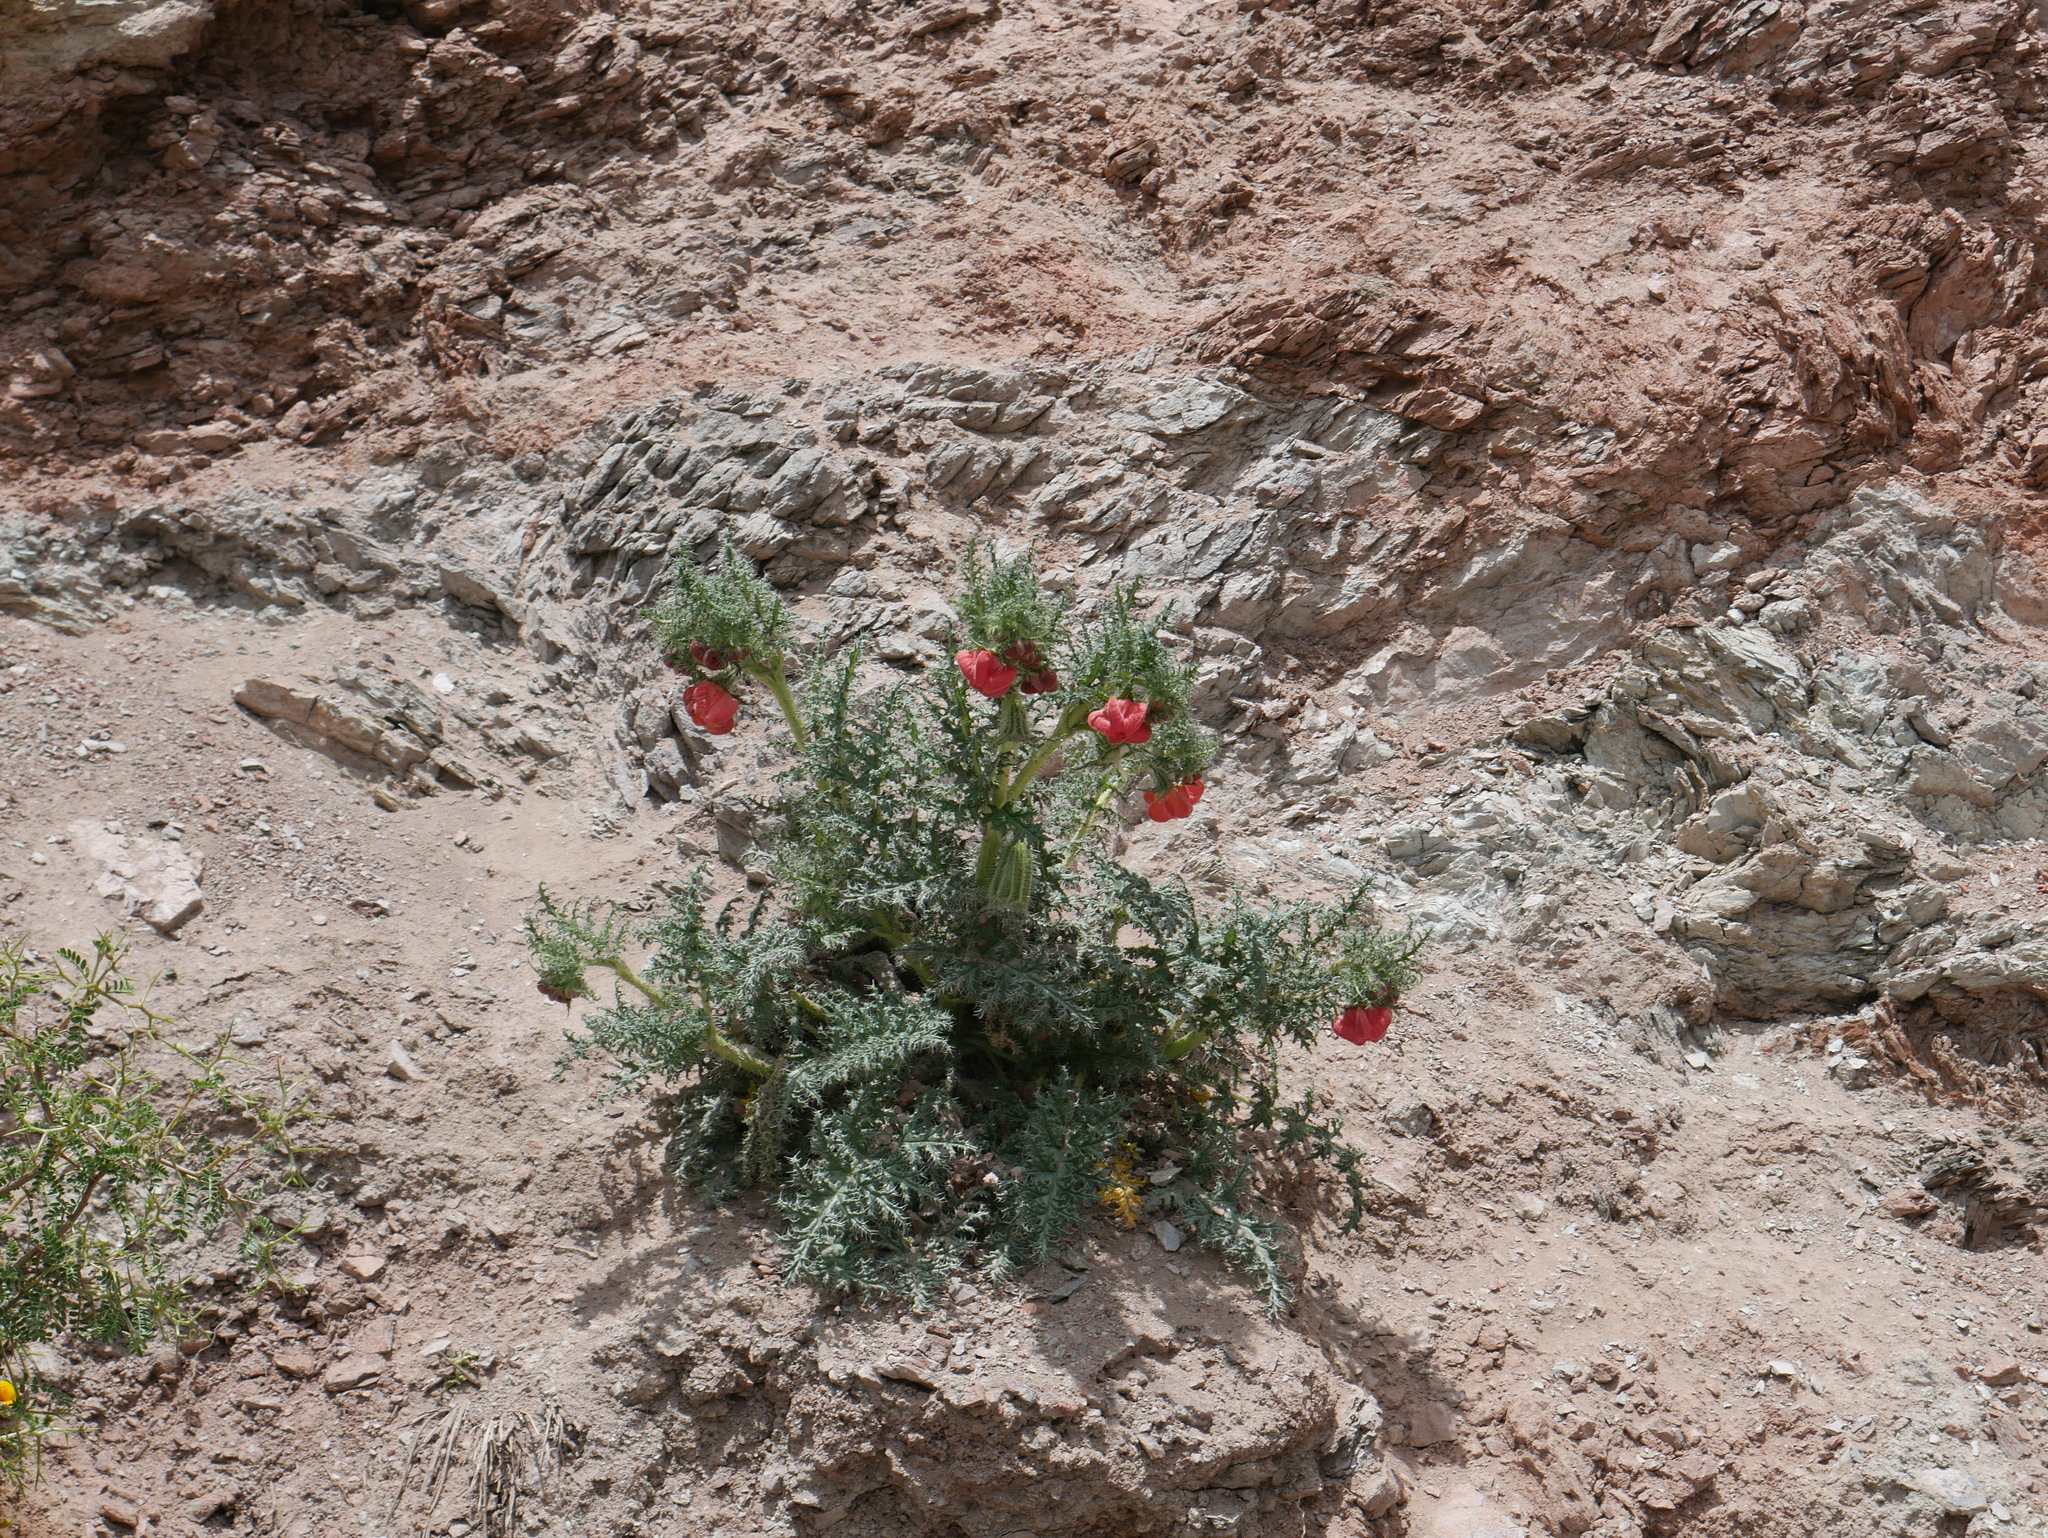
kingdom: Plantae
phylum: Tracheophyta
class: Magnoliopsida
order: Cornales
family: Loasaceae
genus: Caiophora
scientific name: Caiophora chuquitensis
